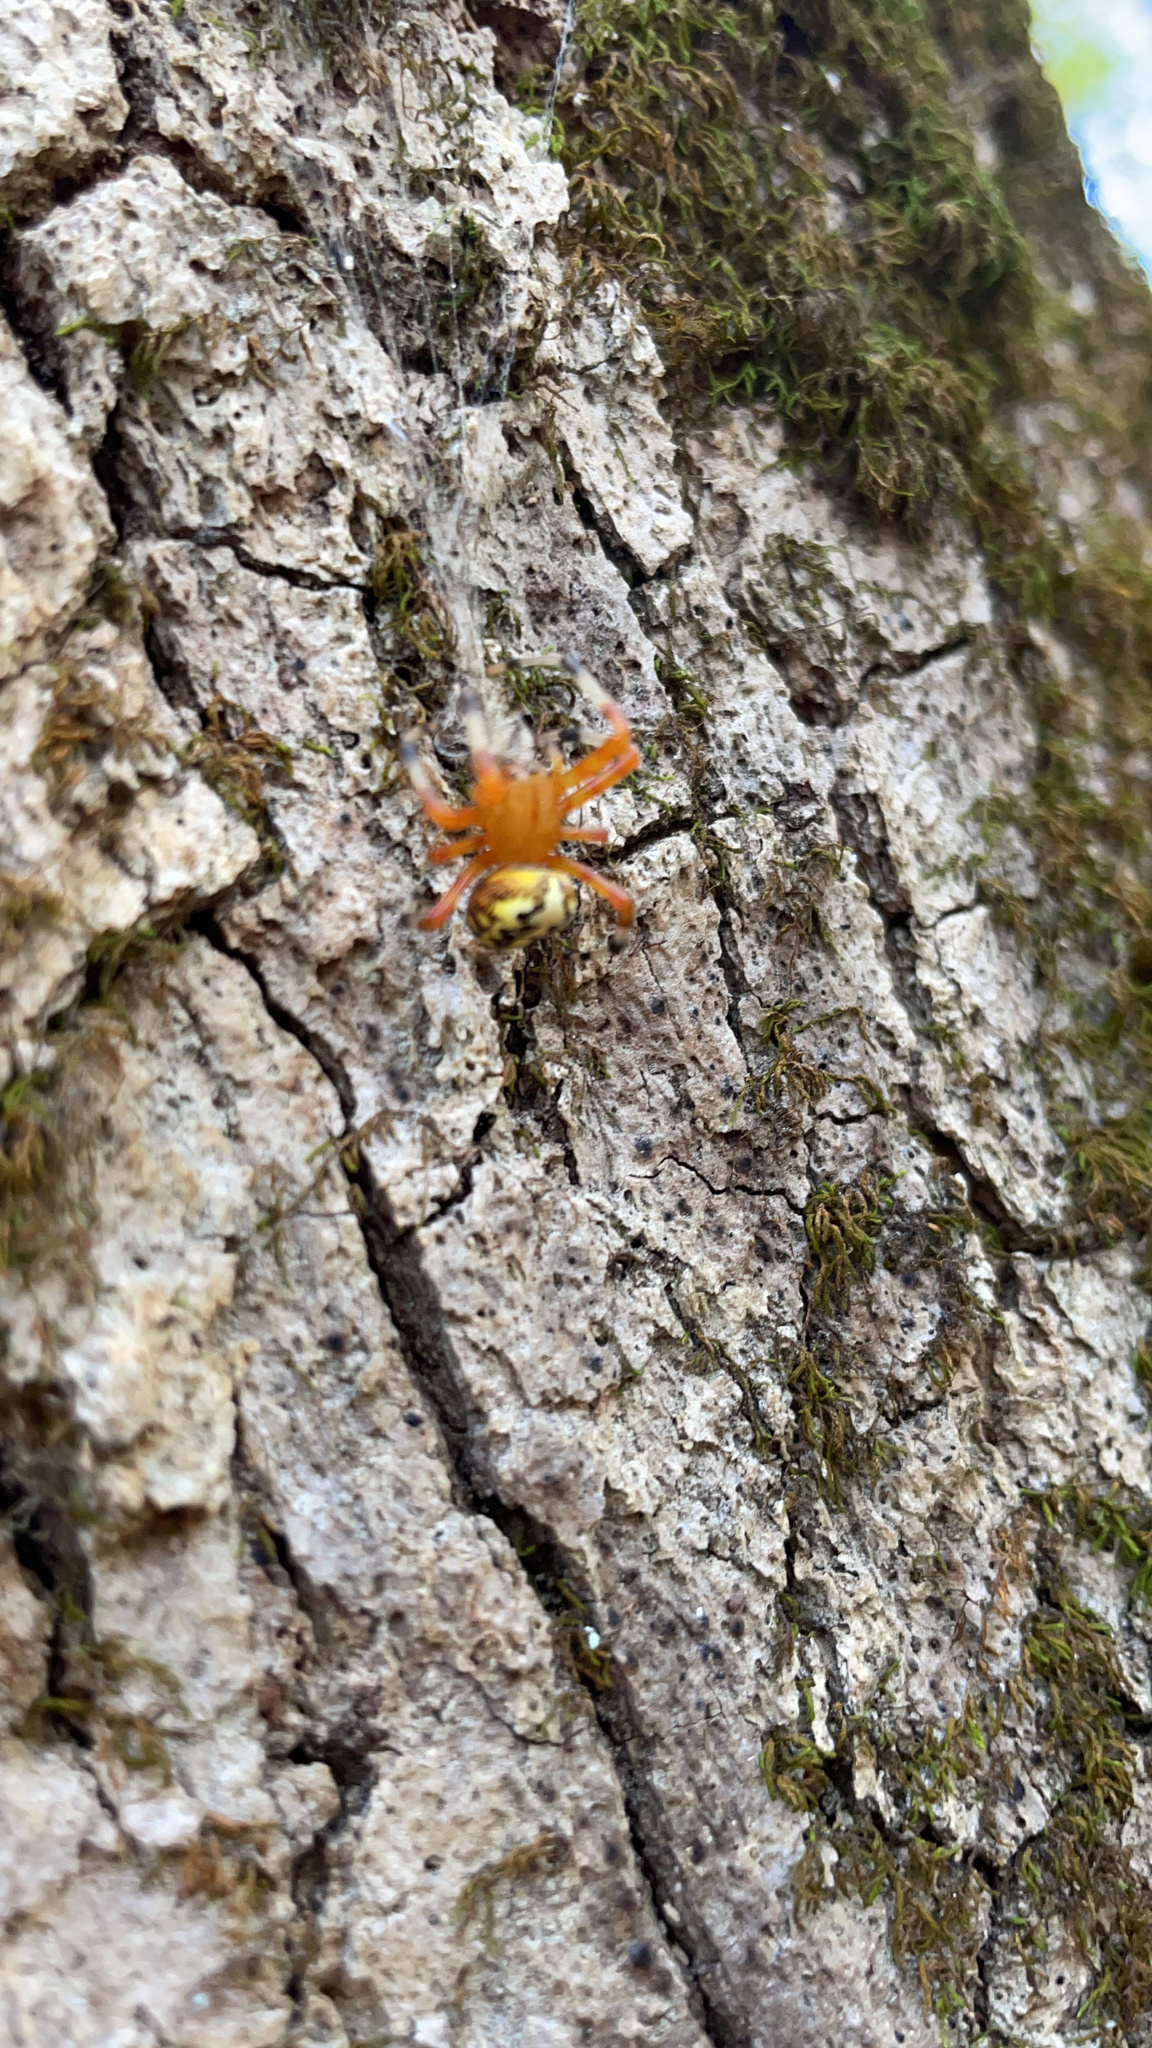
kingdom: Animalia
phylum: Arthropoda
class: Arachnida
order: Araneae
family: Araneidae
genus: Araneus
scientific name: Araneus marmoreus
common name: Marbled orbweaver
